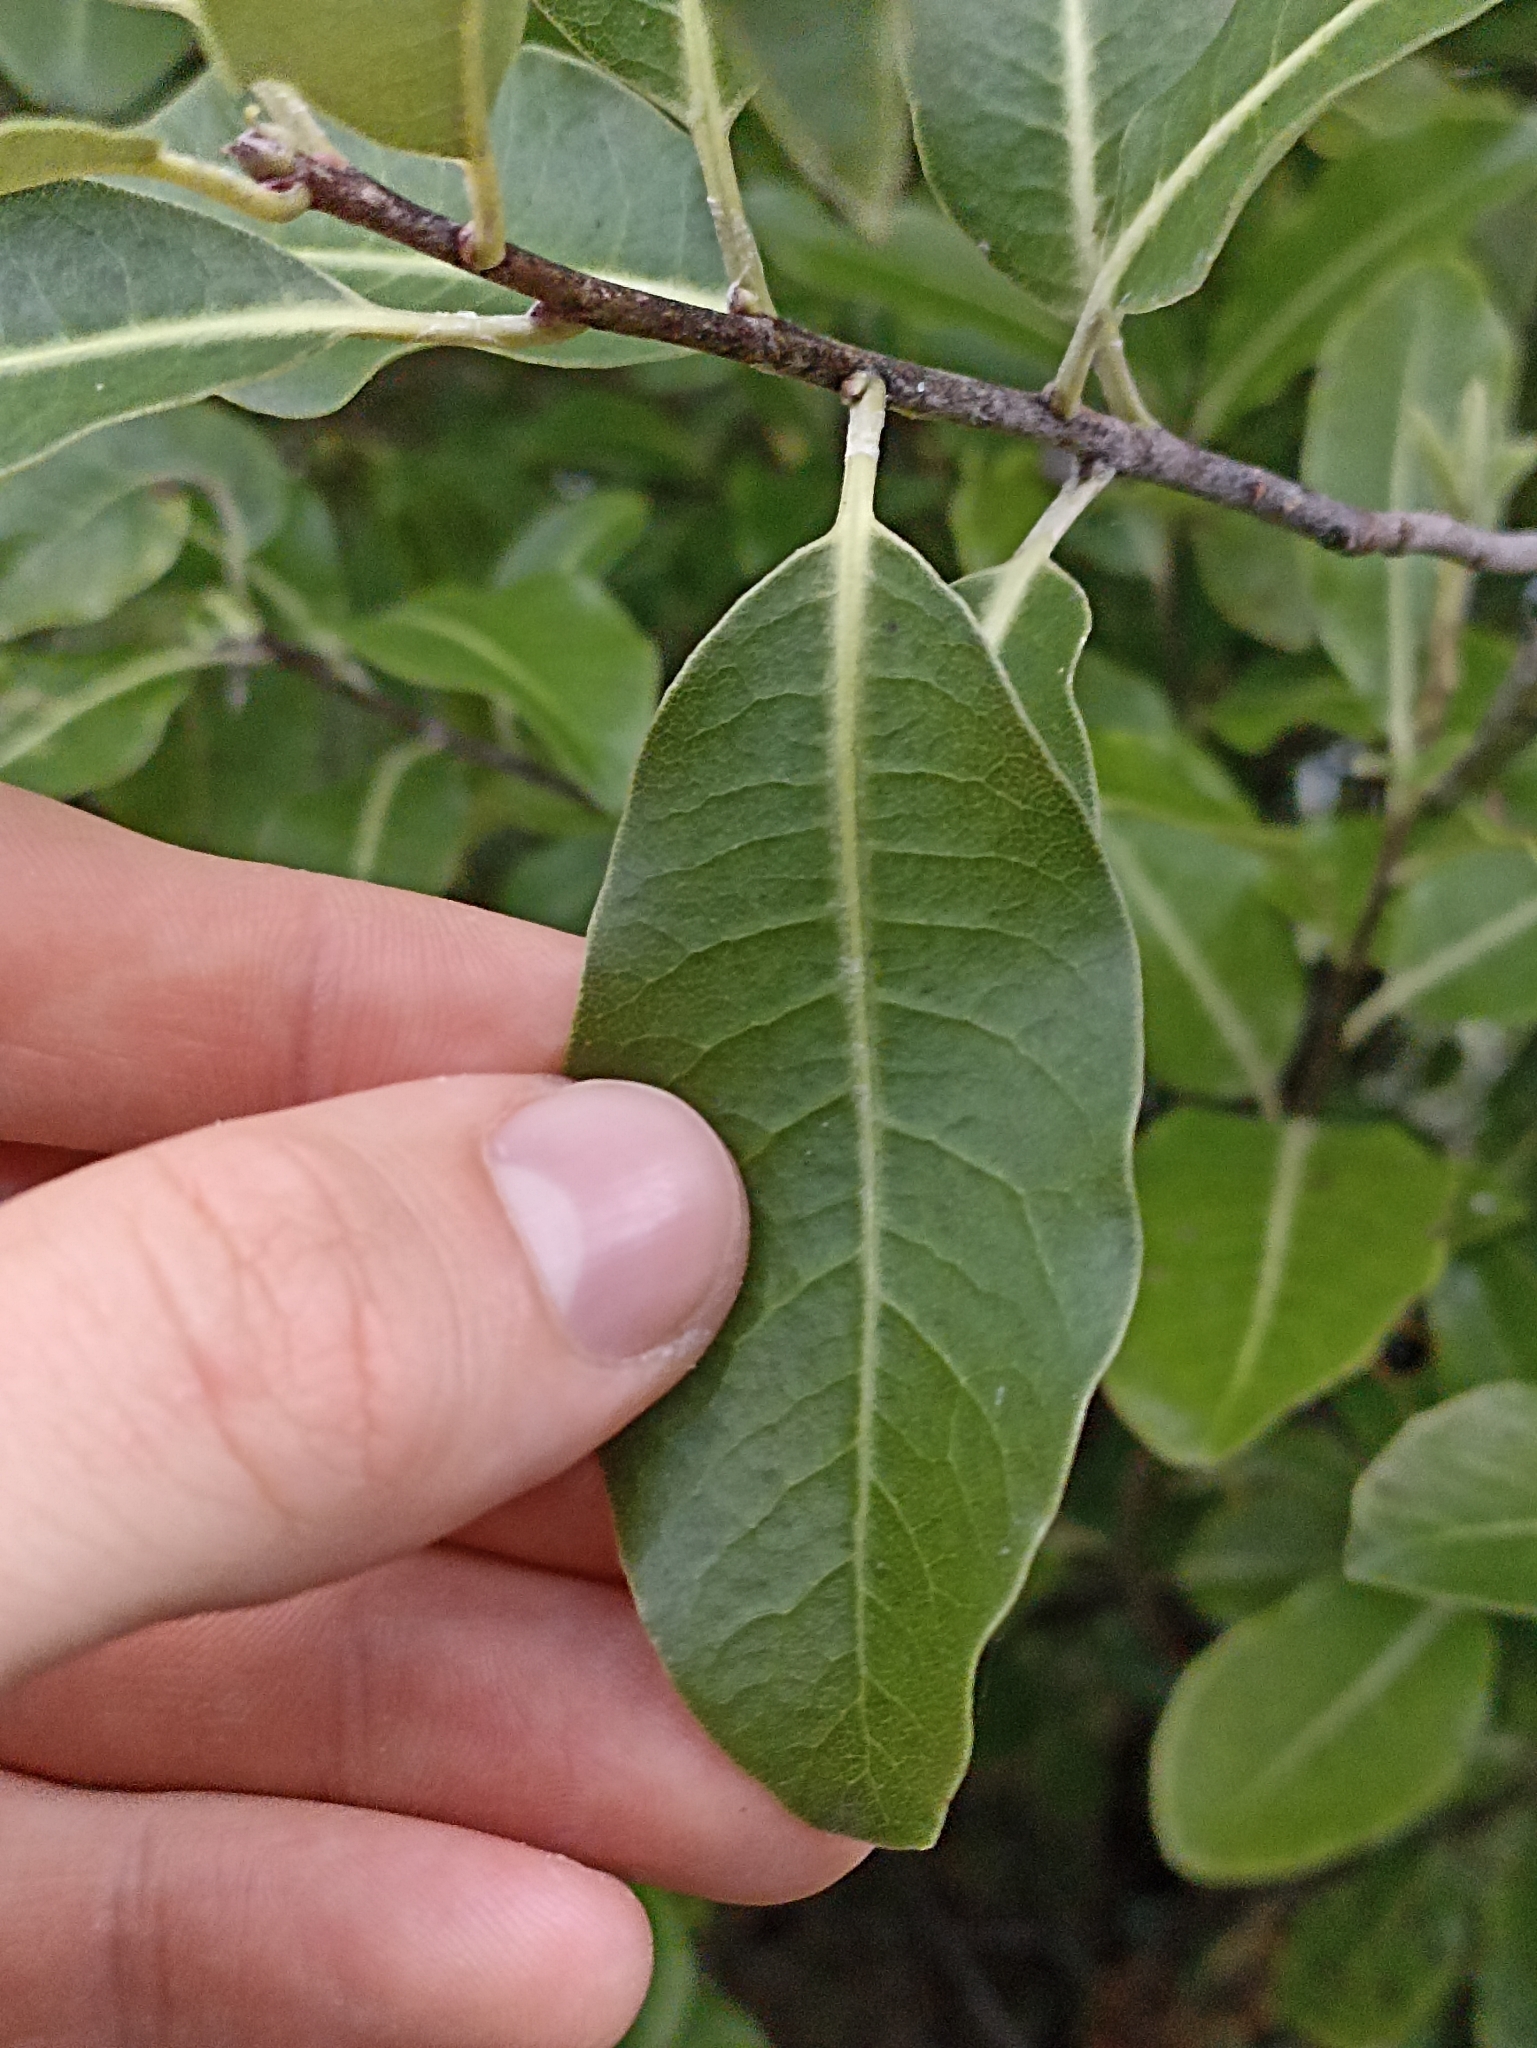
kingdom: Plantae
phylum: Tracheophyta
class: Magnoliopsida
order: Apiales
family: Pittosporaceae
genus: Pittosporum
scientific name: Pittosporum colensoi
